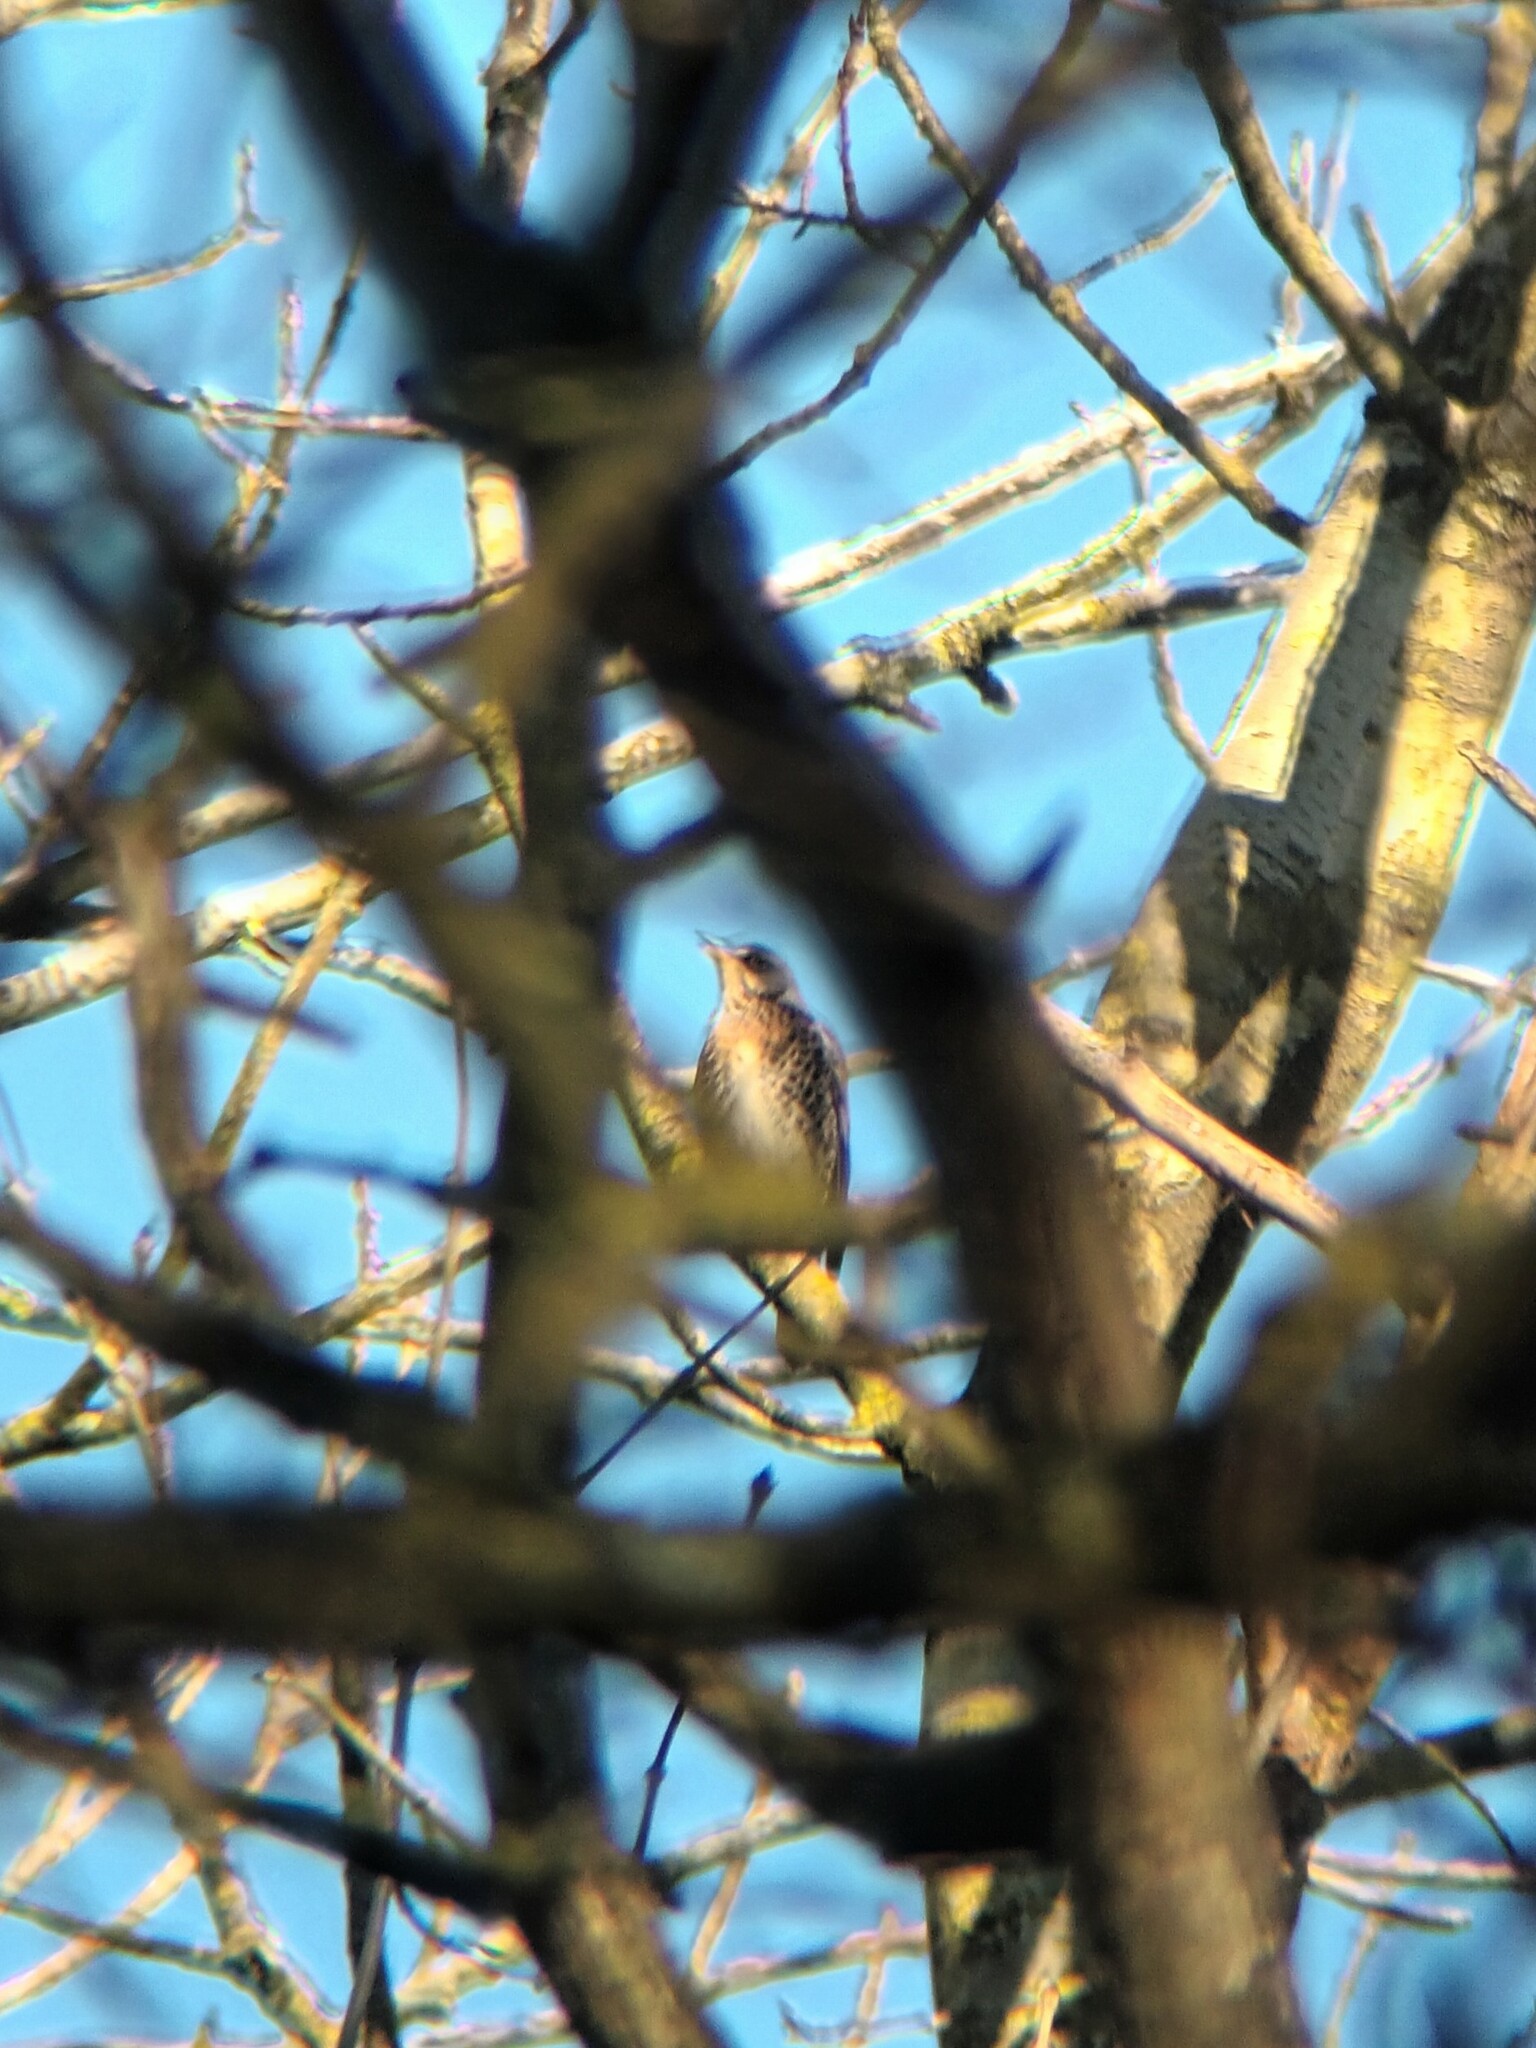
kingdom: Animalia
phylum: Chordata
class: Aves
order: Passeriformes
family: Turdidae
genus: Turdus
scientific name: Turdus pilaris
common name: Fieldfare
